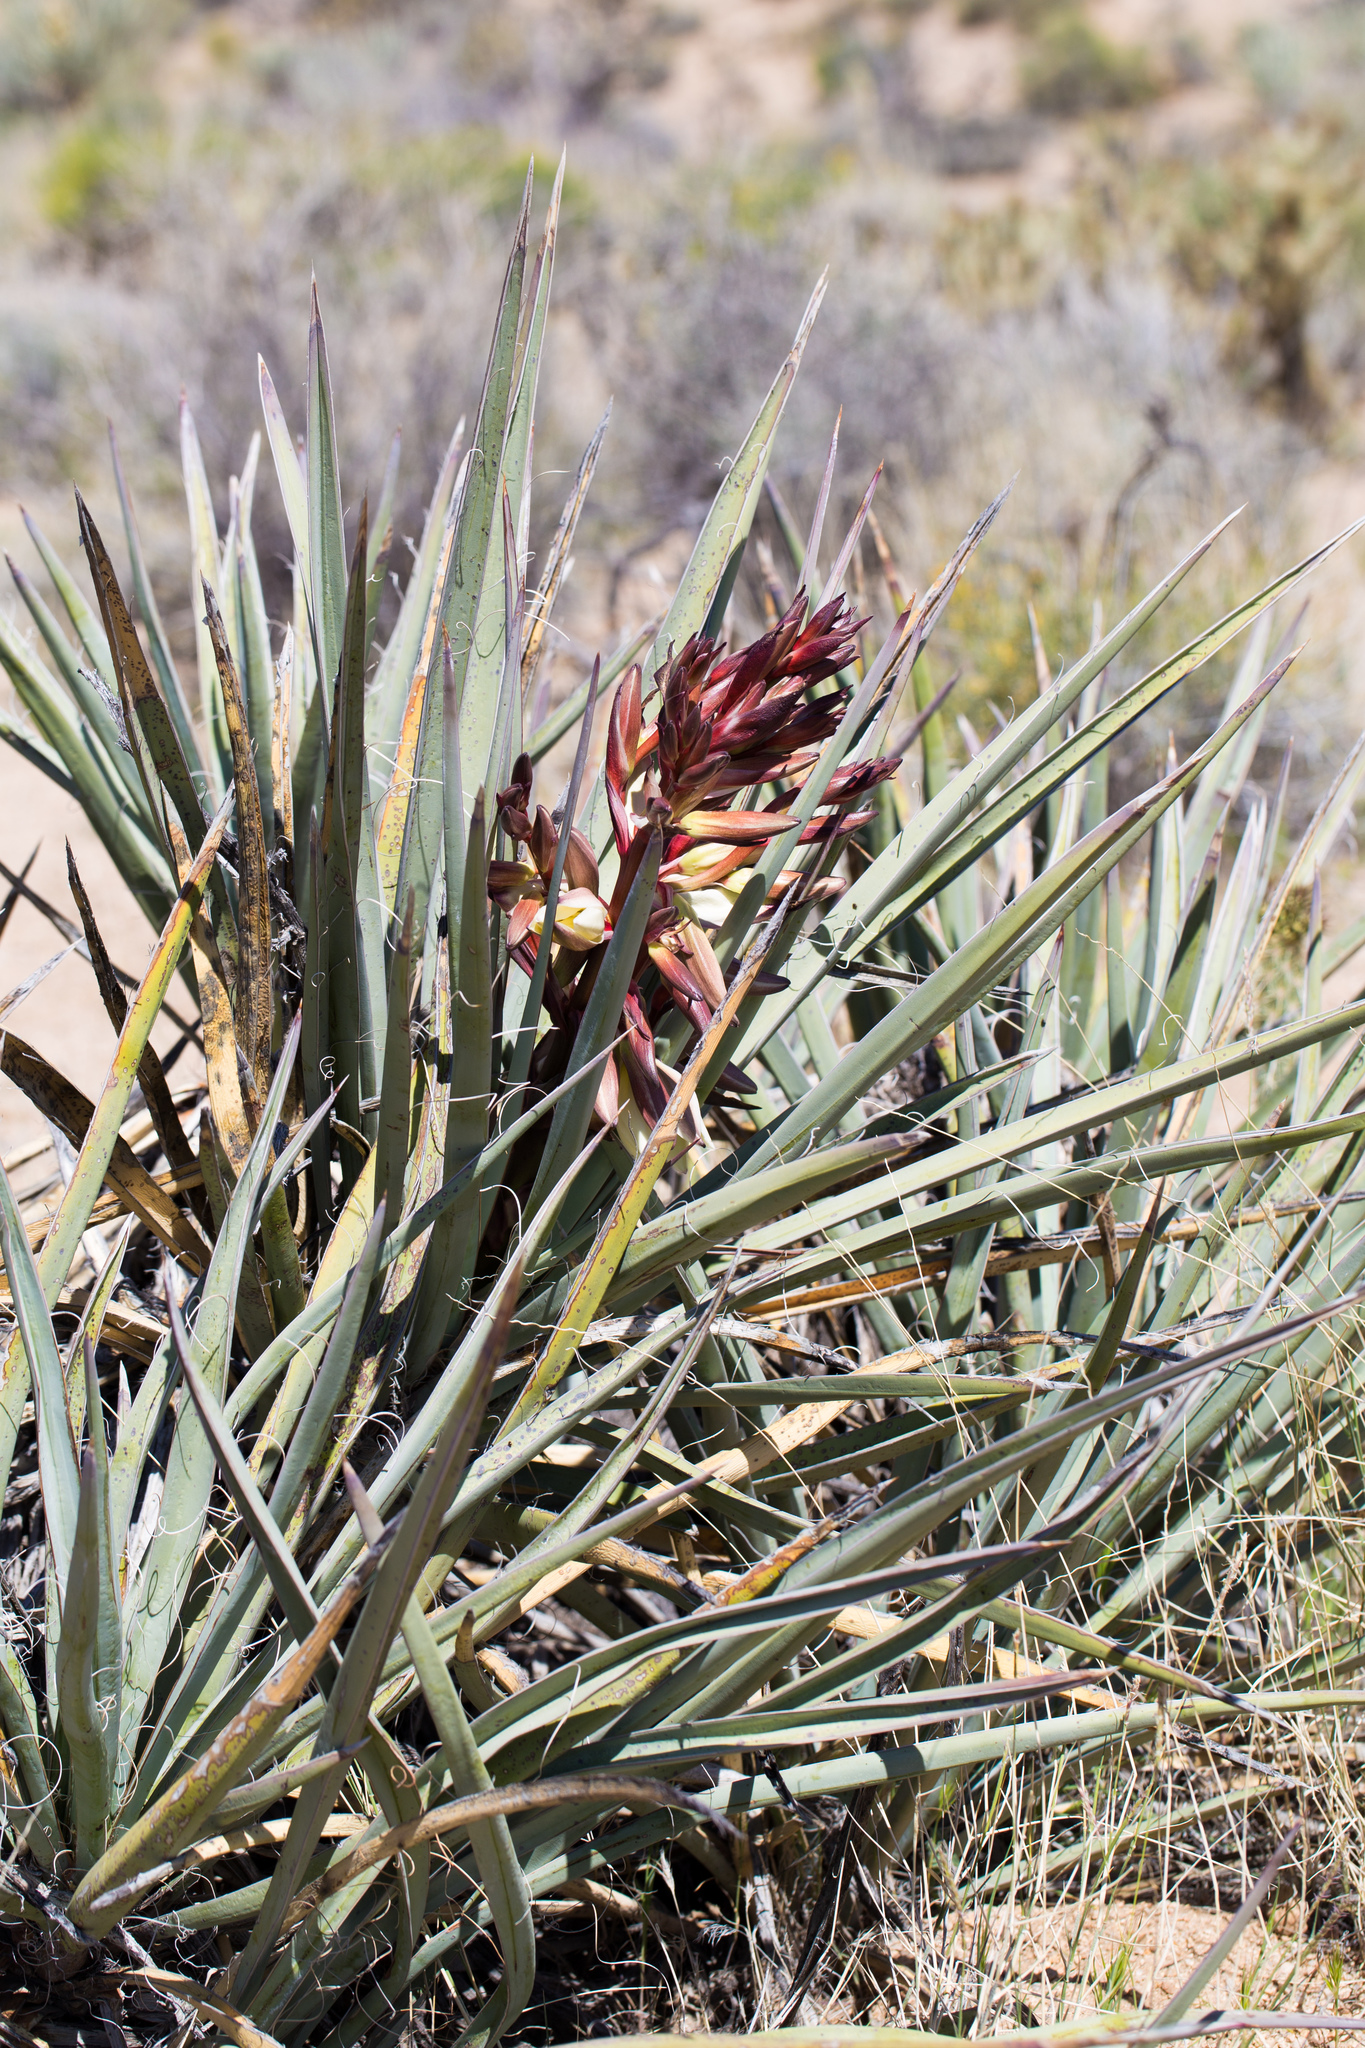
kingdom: Plantae
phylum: Tracheophyta
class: Liliopsida
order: Asparagales
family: Asparagaceae
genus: Yucca
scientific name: Yucca baccata
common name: Banana yucca
